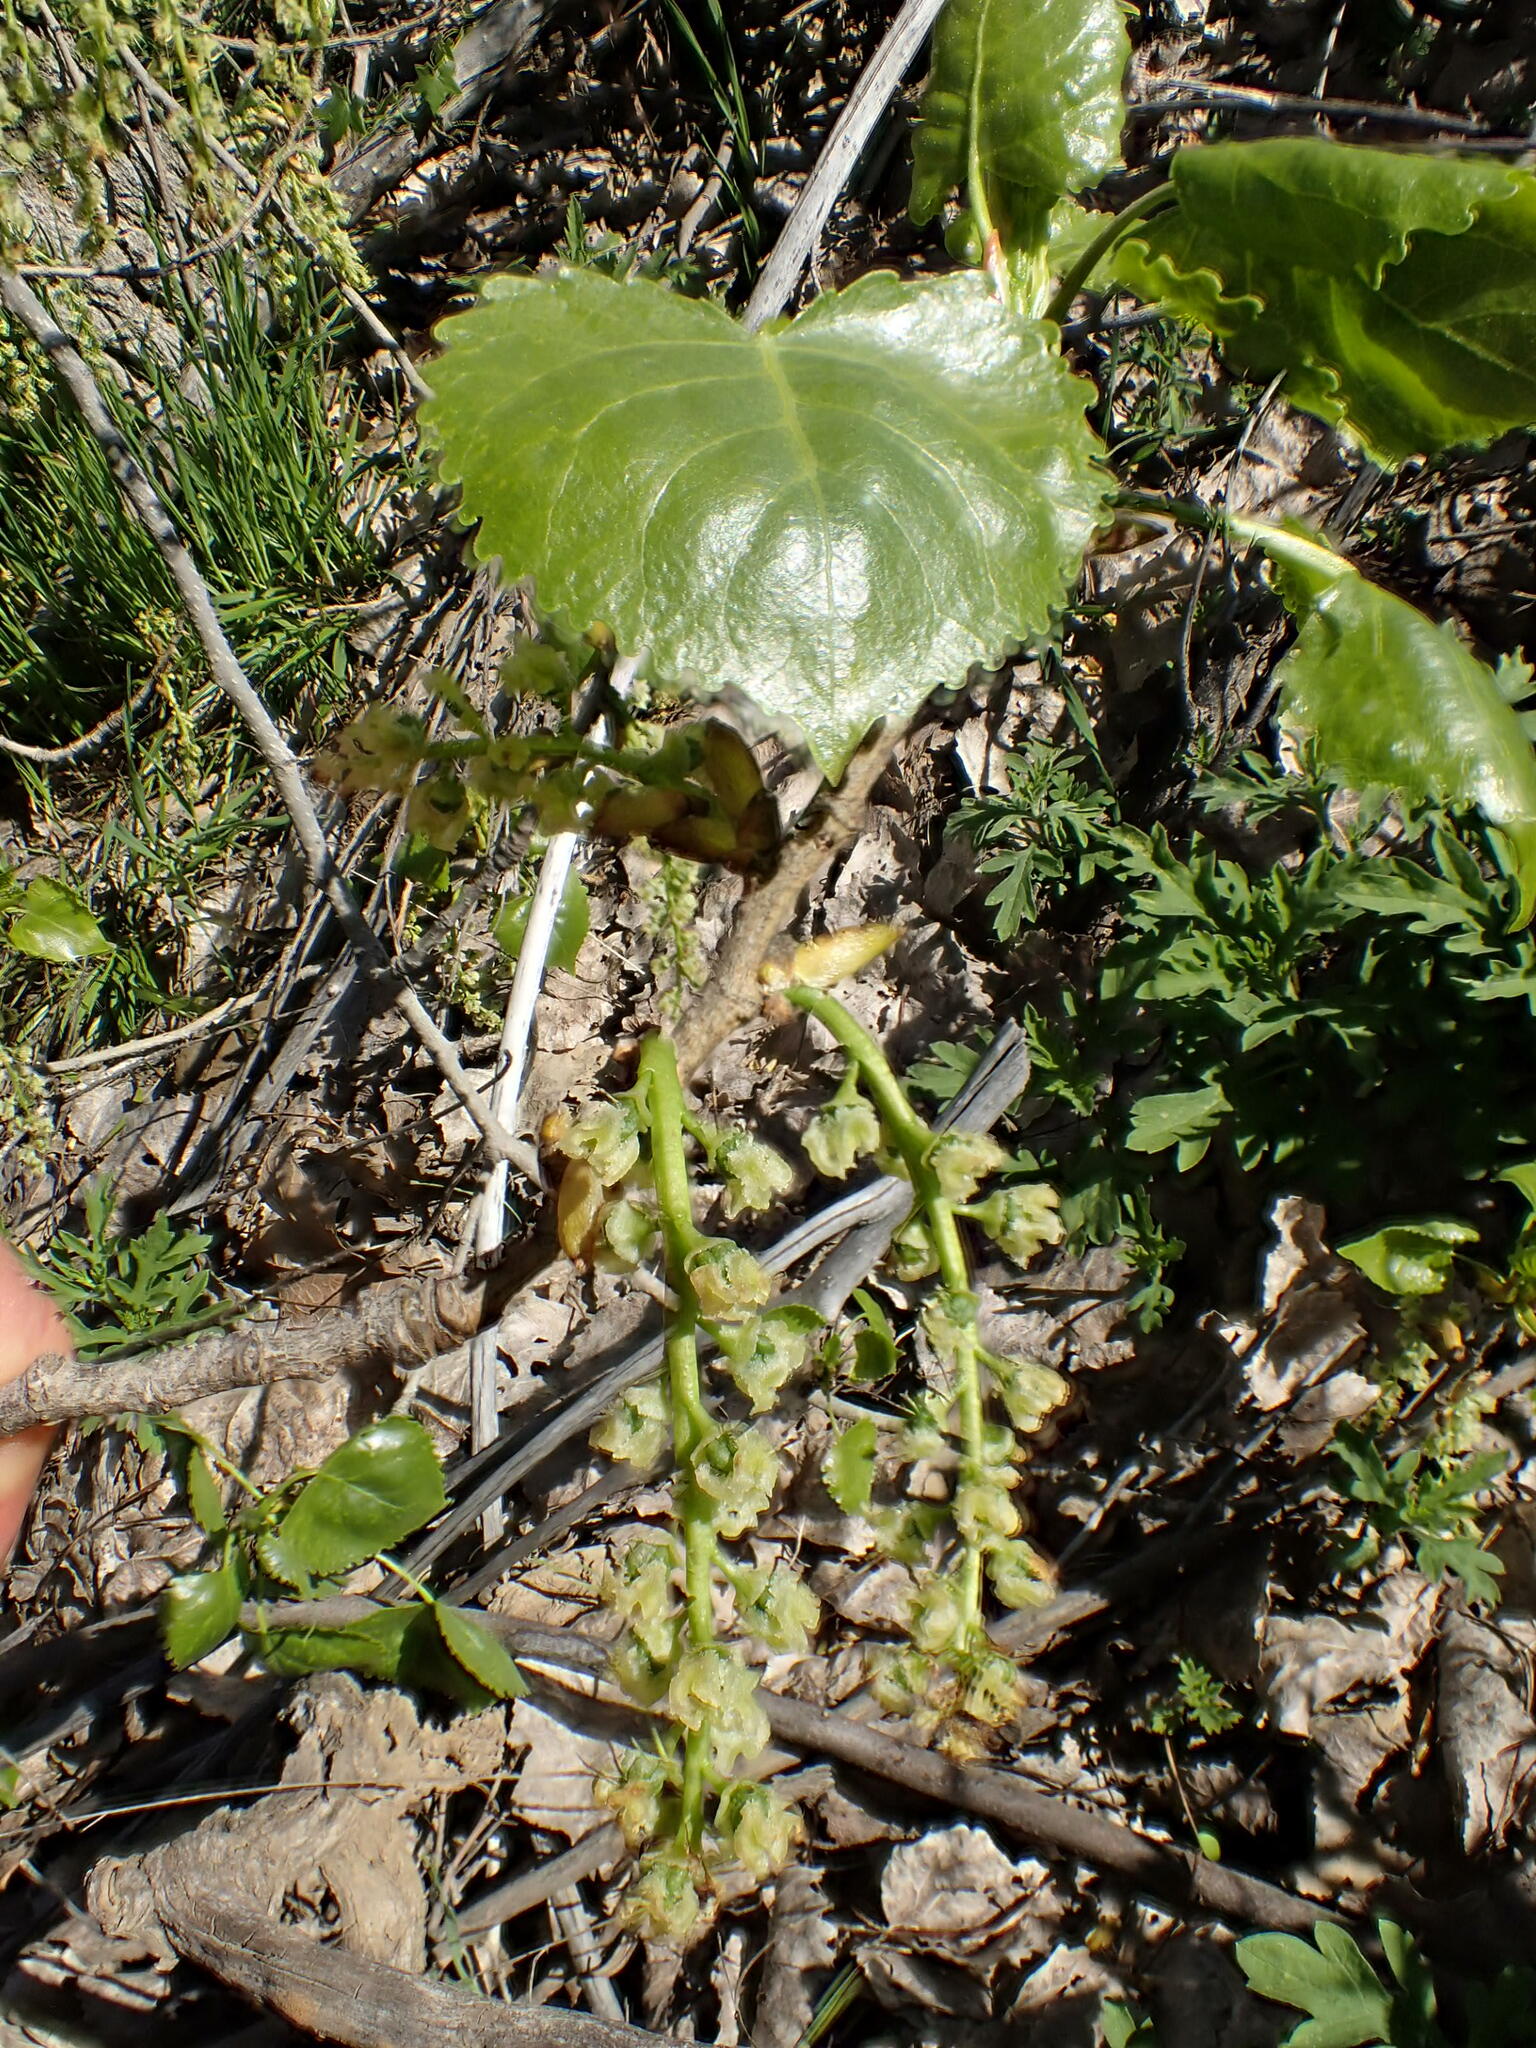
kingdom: Plantae
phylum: Tracheophyta
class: Magnoliopsida
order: Malpighiales
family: Salicaceae
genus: Populus
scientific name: Populus fremontii
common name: Fremont's cottonwood
